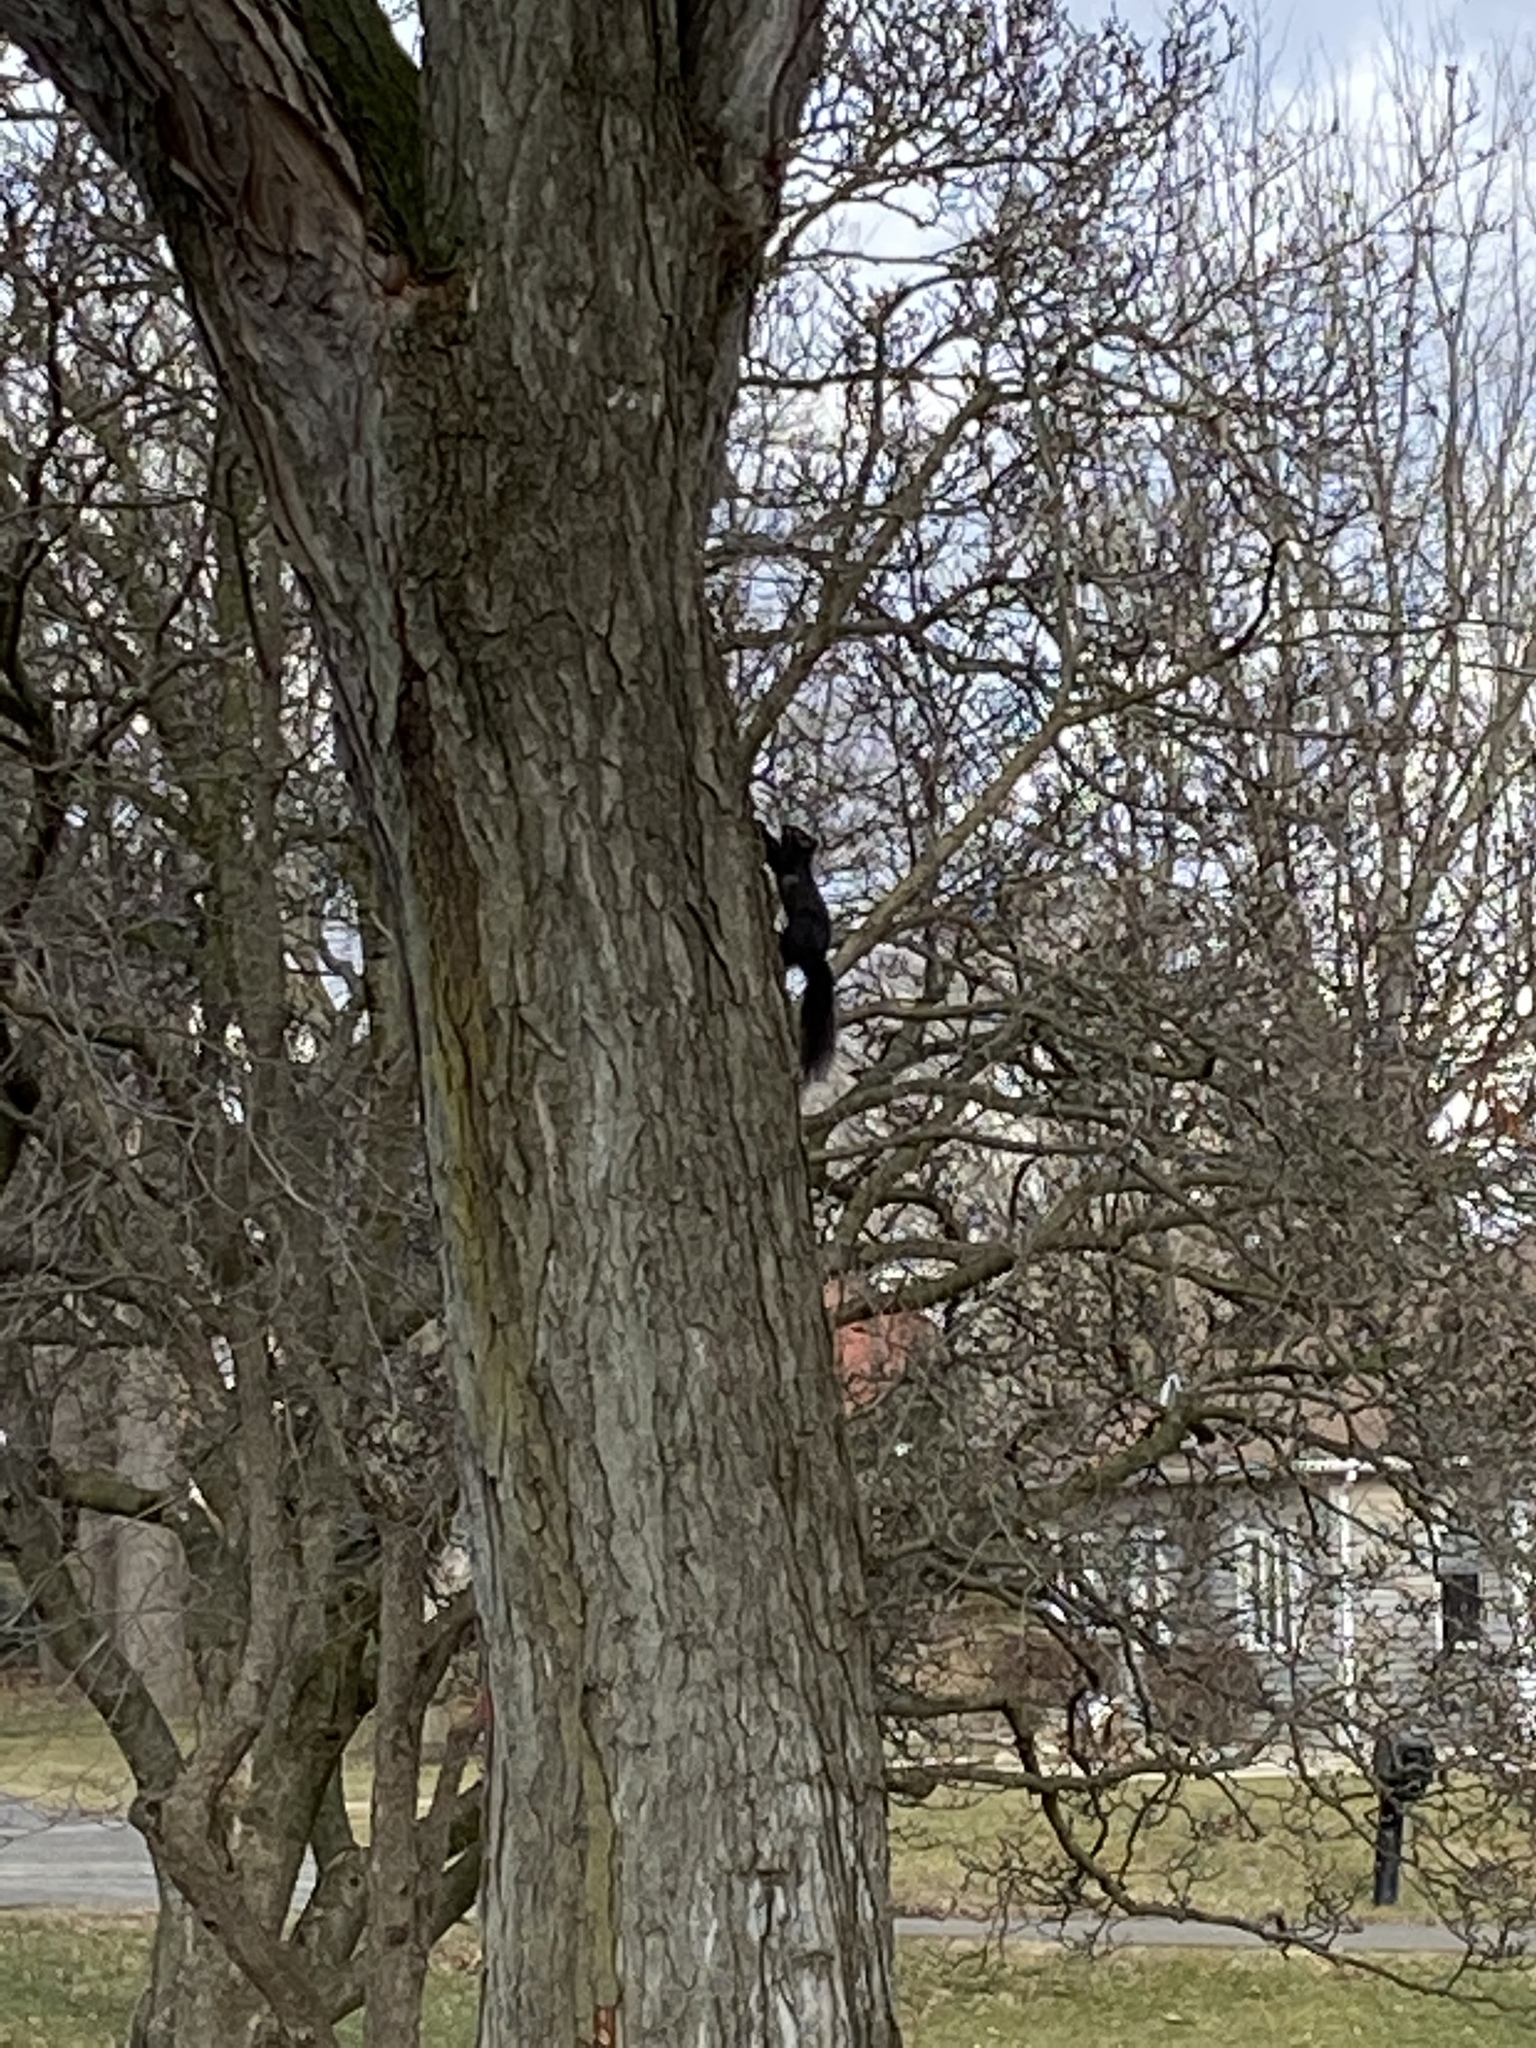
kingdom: Animalia
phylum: Chordata
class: Mammalia
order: Rodentia
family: Sciuridae
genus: Sciurus
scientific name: Sciurus carolinensis
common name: Eastern gray squirrel
